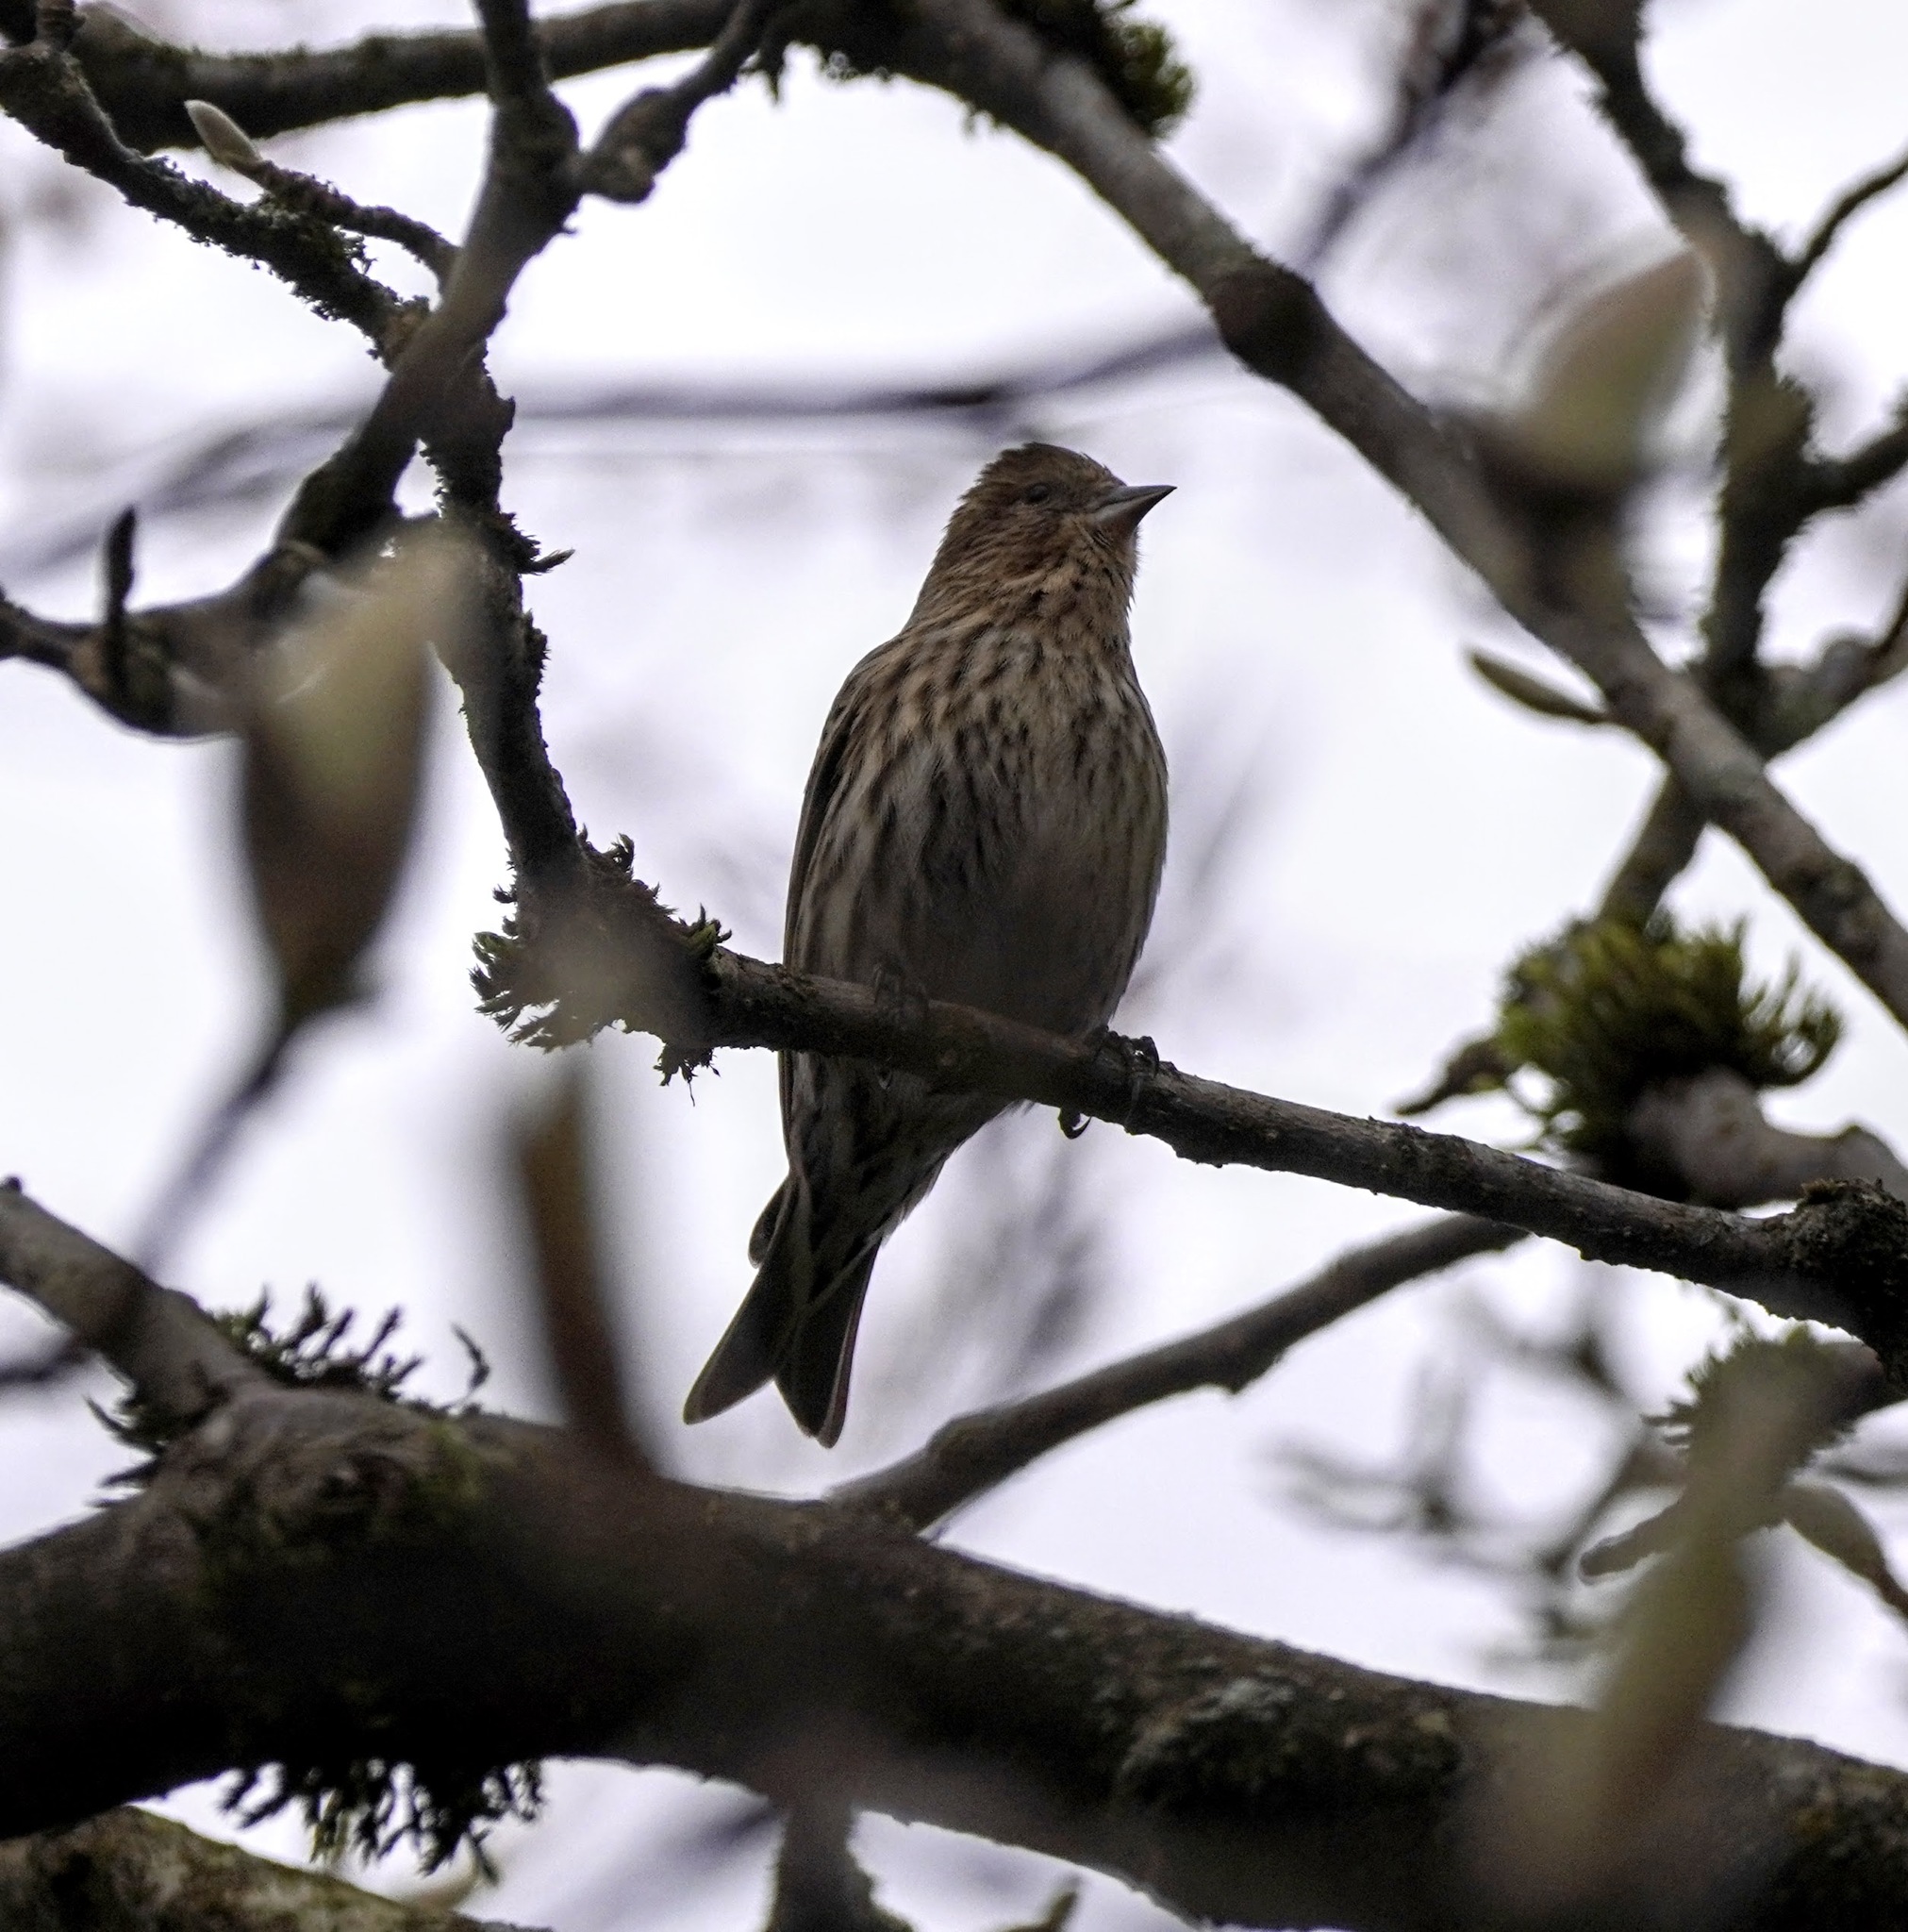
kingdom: Animalia
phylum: Chordata
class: Aves
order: Passeriformes
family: Fringillidae
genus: Spinus
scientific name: Spinus pinus
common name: Pine siskin
